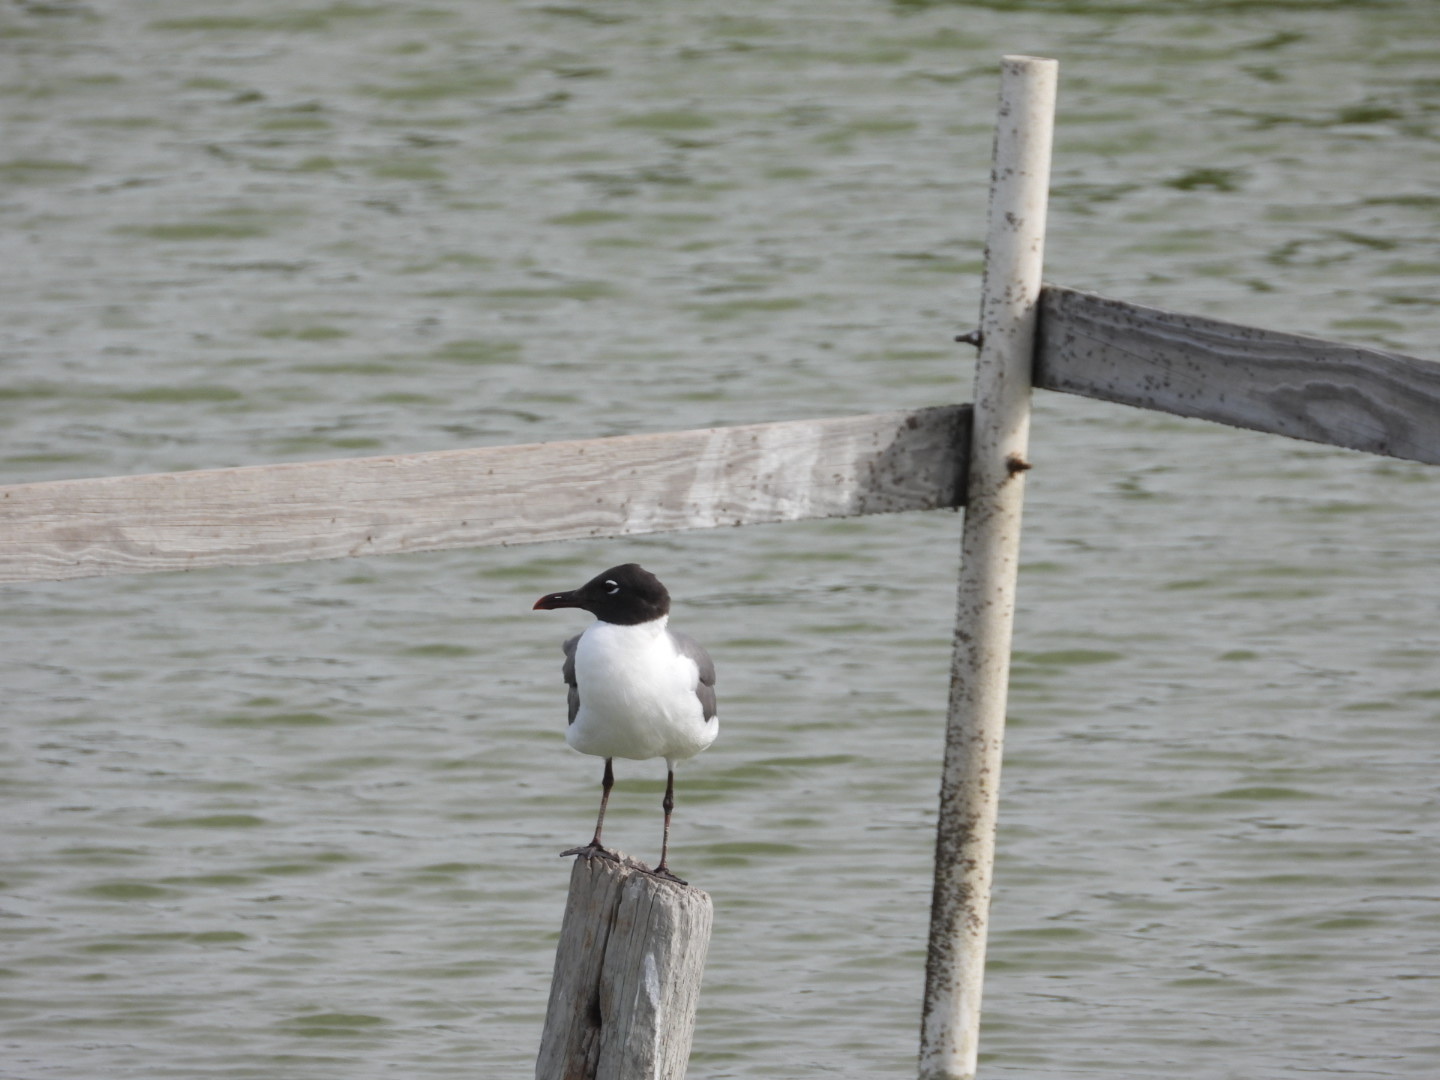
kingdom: Animalia
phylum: Chordata
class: Aves
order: Charadriiformes
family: Laridae
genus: Leucophaeus
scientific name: Leucophaeus atricilla
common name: Laughing gull
